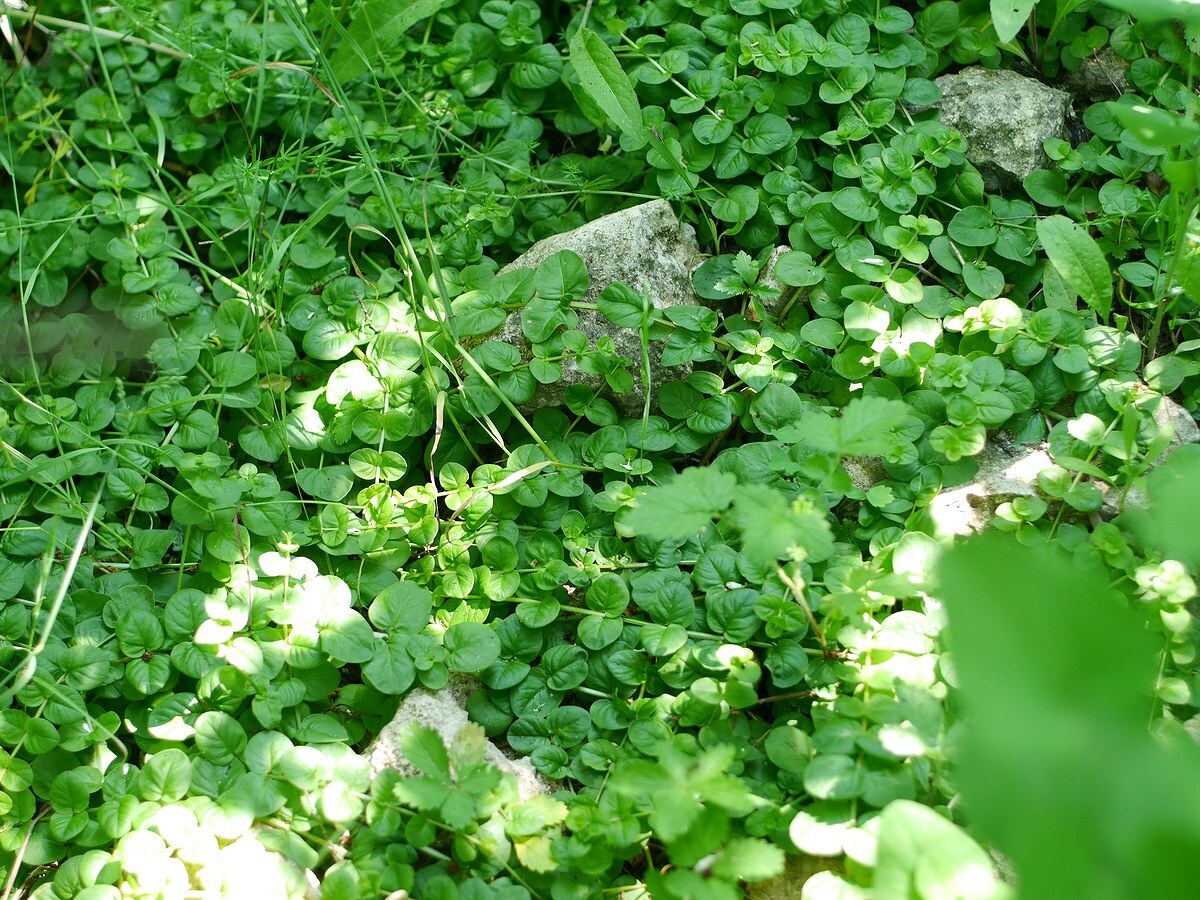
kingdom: Plantae
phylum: Tracheophyta
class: Magnoliopsida
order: Ericales
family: Primulaceae
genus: Lysimachia
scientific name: Lysimachia nummularia
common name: Moneywort
